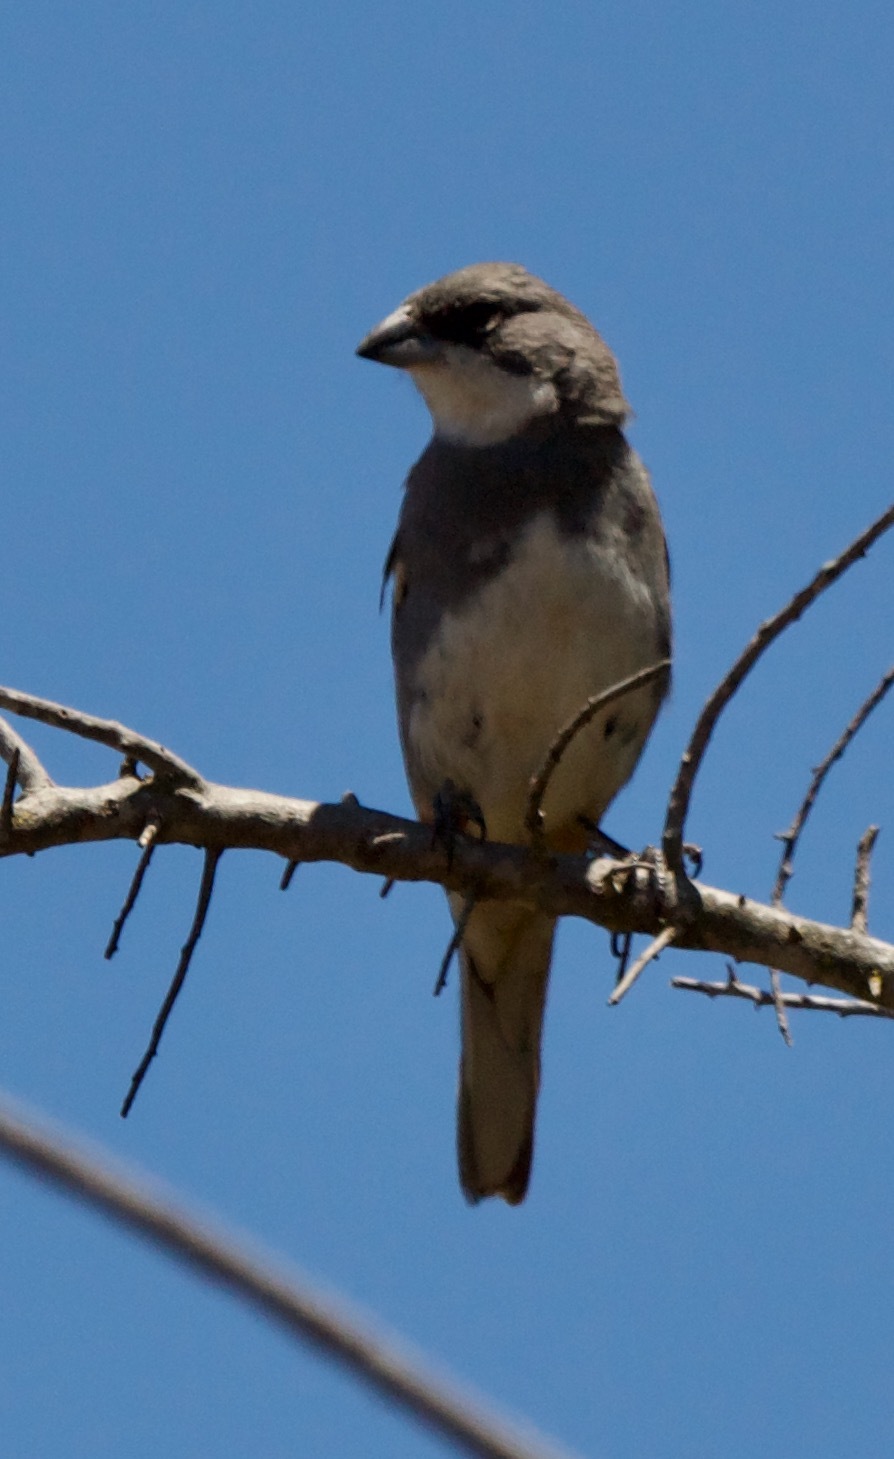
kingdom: Animalia
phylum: Chordata
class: Aves
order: Passeriformes
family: Thraupidae
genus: Diuca
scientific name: Diuca diuca
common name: Common diuca finch
